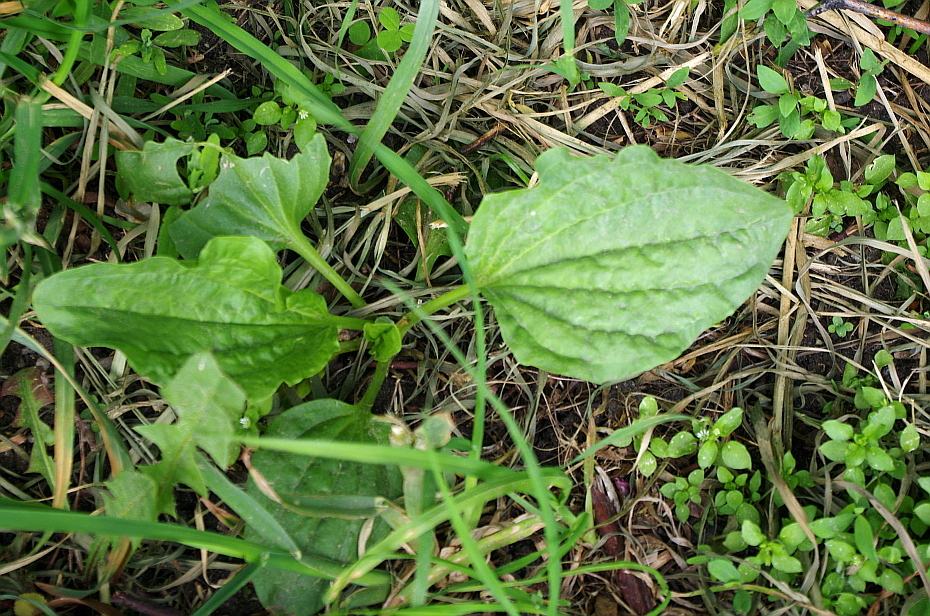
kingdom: Plantae
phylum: Tracheophyta
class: Magnoliopsida
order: Lamiales
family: Plantaginaceae
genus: Plantago
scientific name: Plantago major
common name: Common plantain
